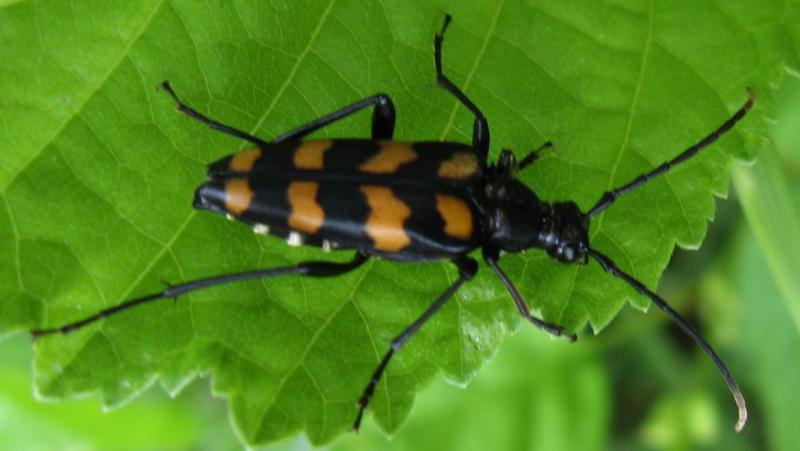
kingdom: Animalia
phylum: Arthropoda
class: Insecta
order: Coleoptera
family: Cerambycidae
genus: Leptura
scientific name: Leptura quadrifasciata
